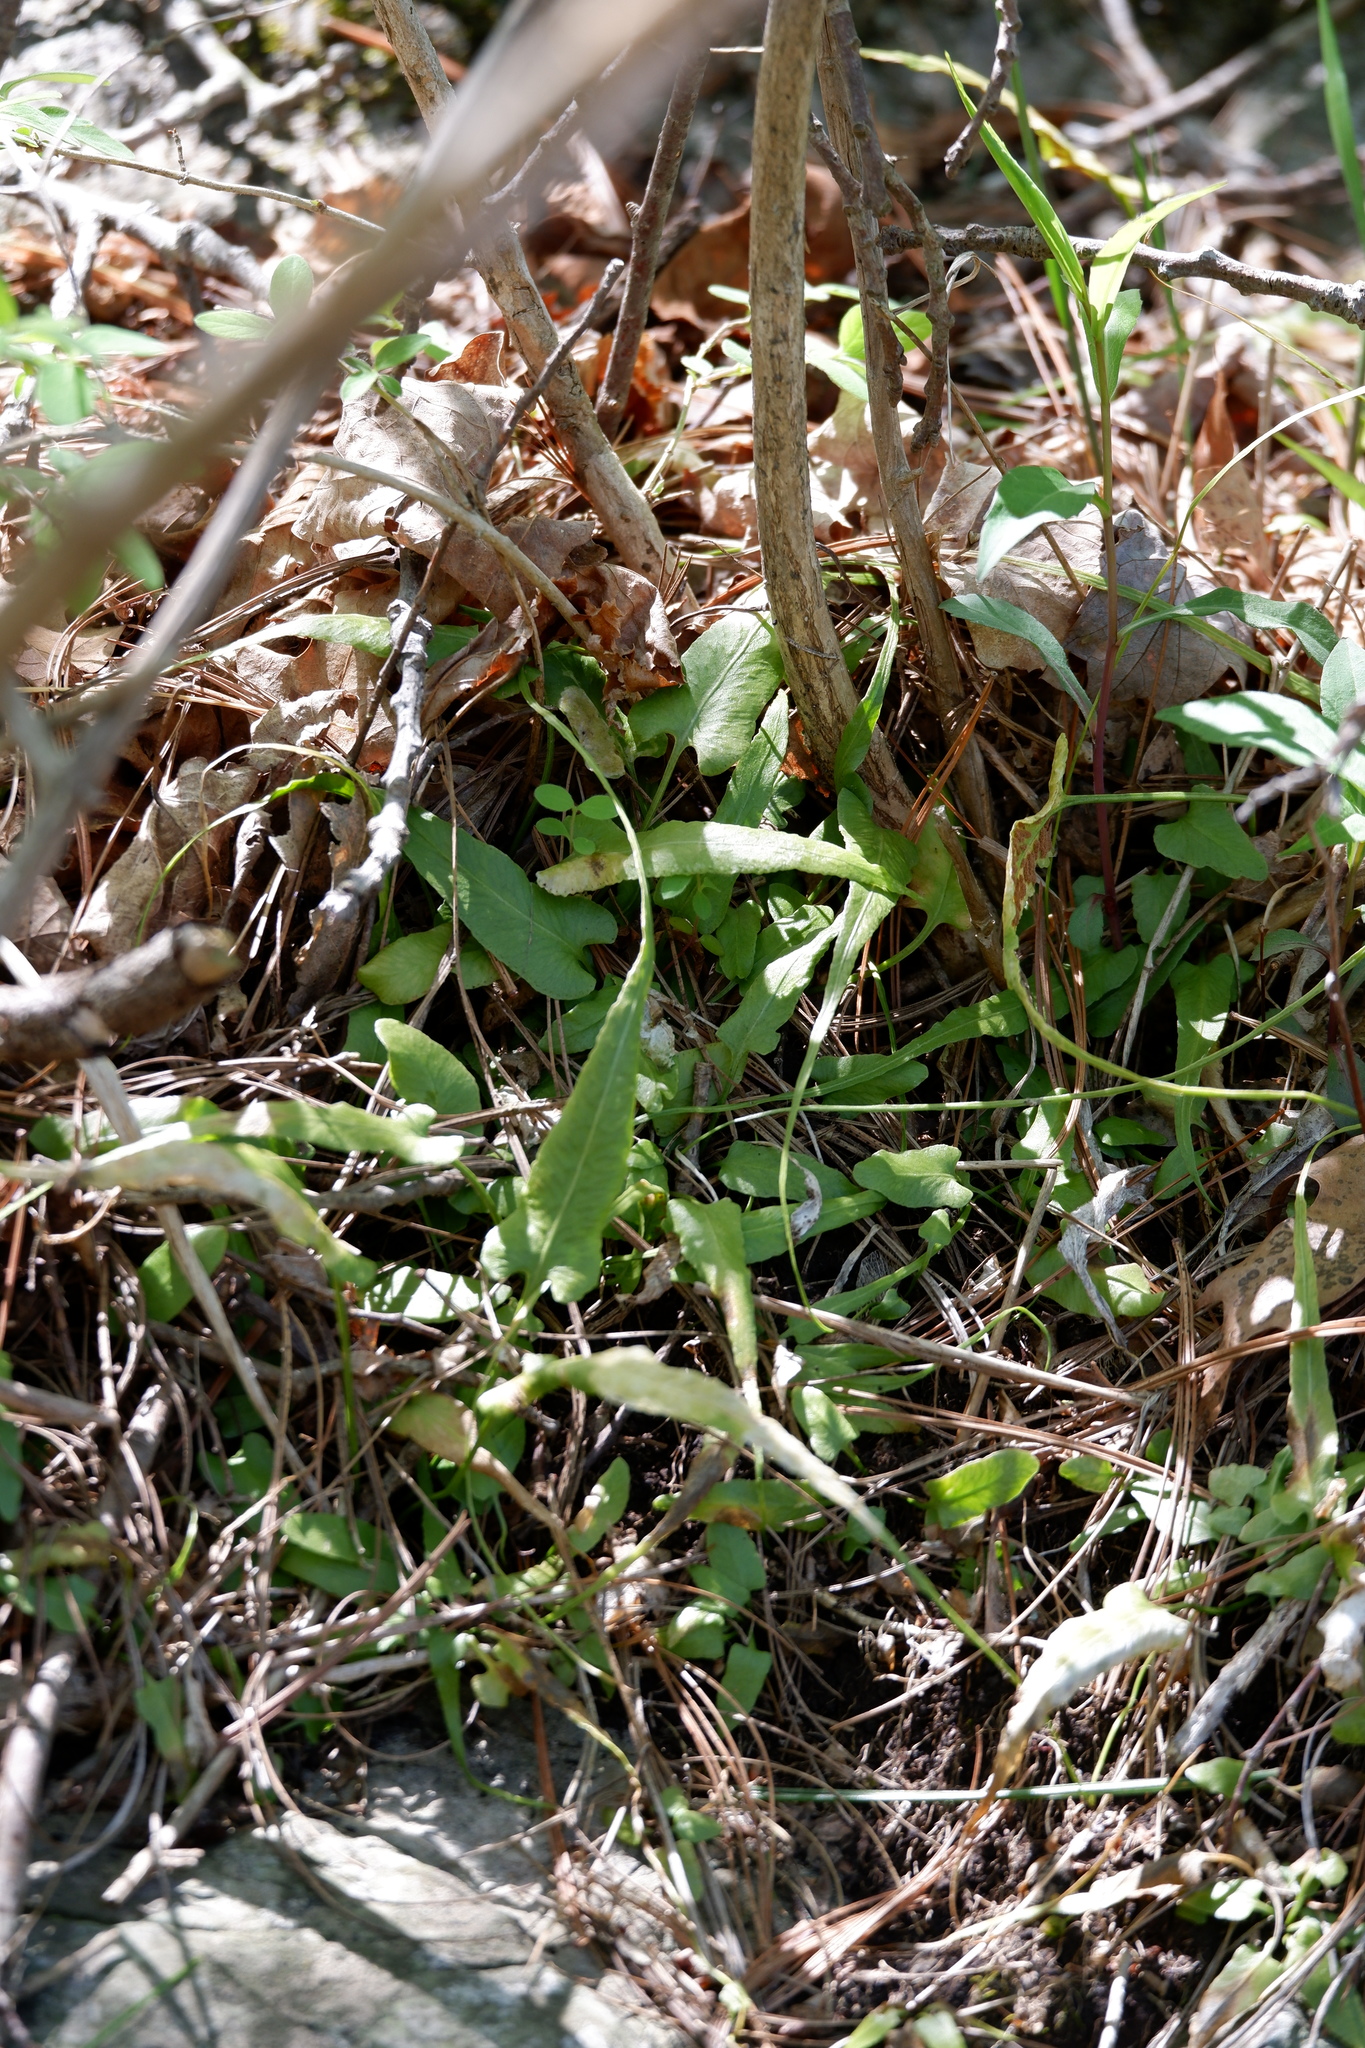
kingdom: Plantae
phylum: Tracheophyta
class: Polypodiopsida
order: Polypodiales
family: Aspleniaceae
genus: Asplenium
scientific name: Asplenium rhizophyllum
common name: Walking fern
